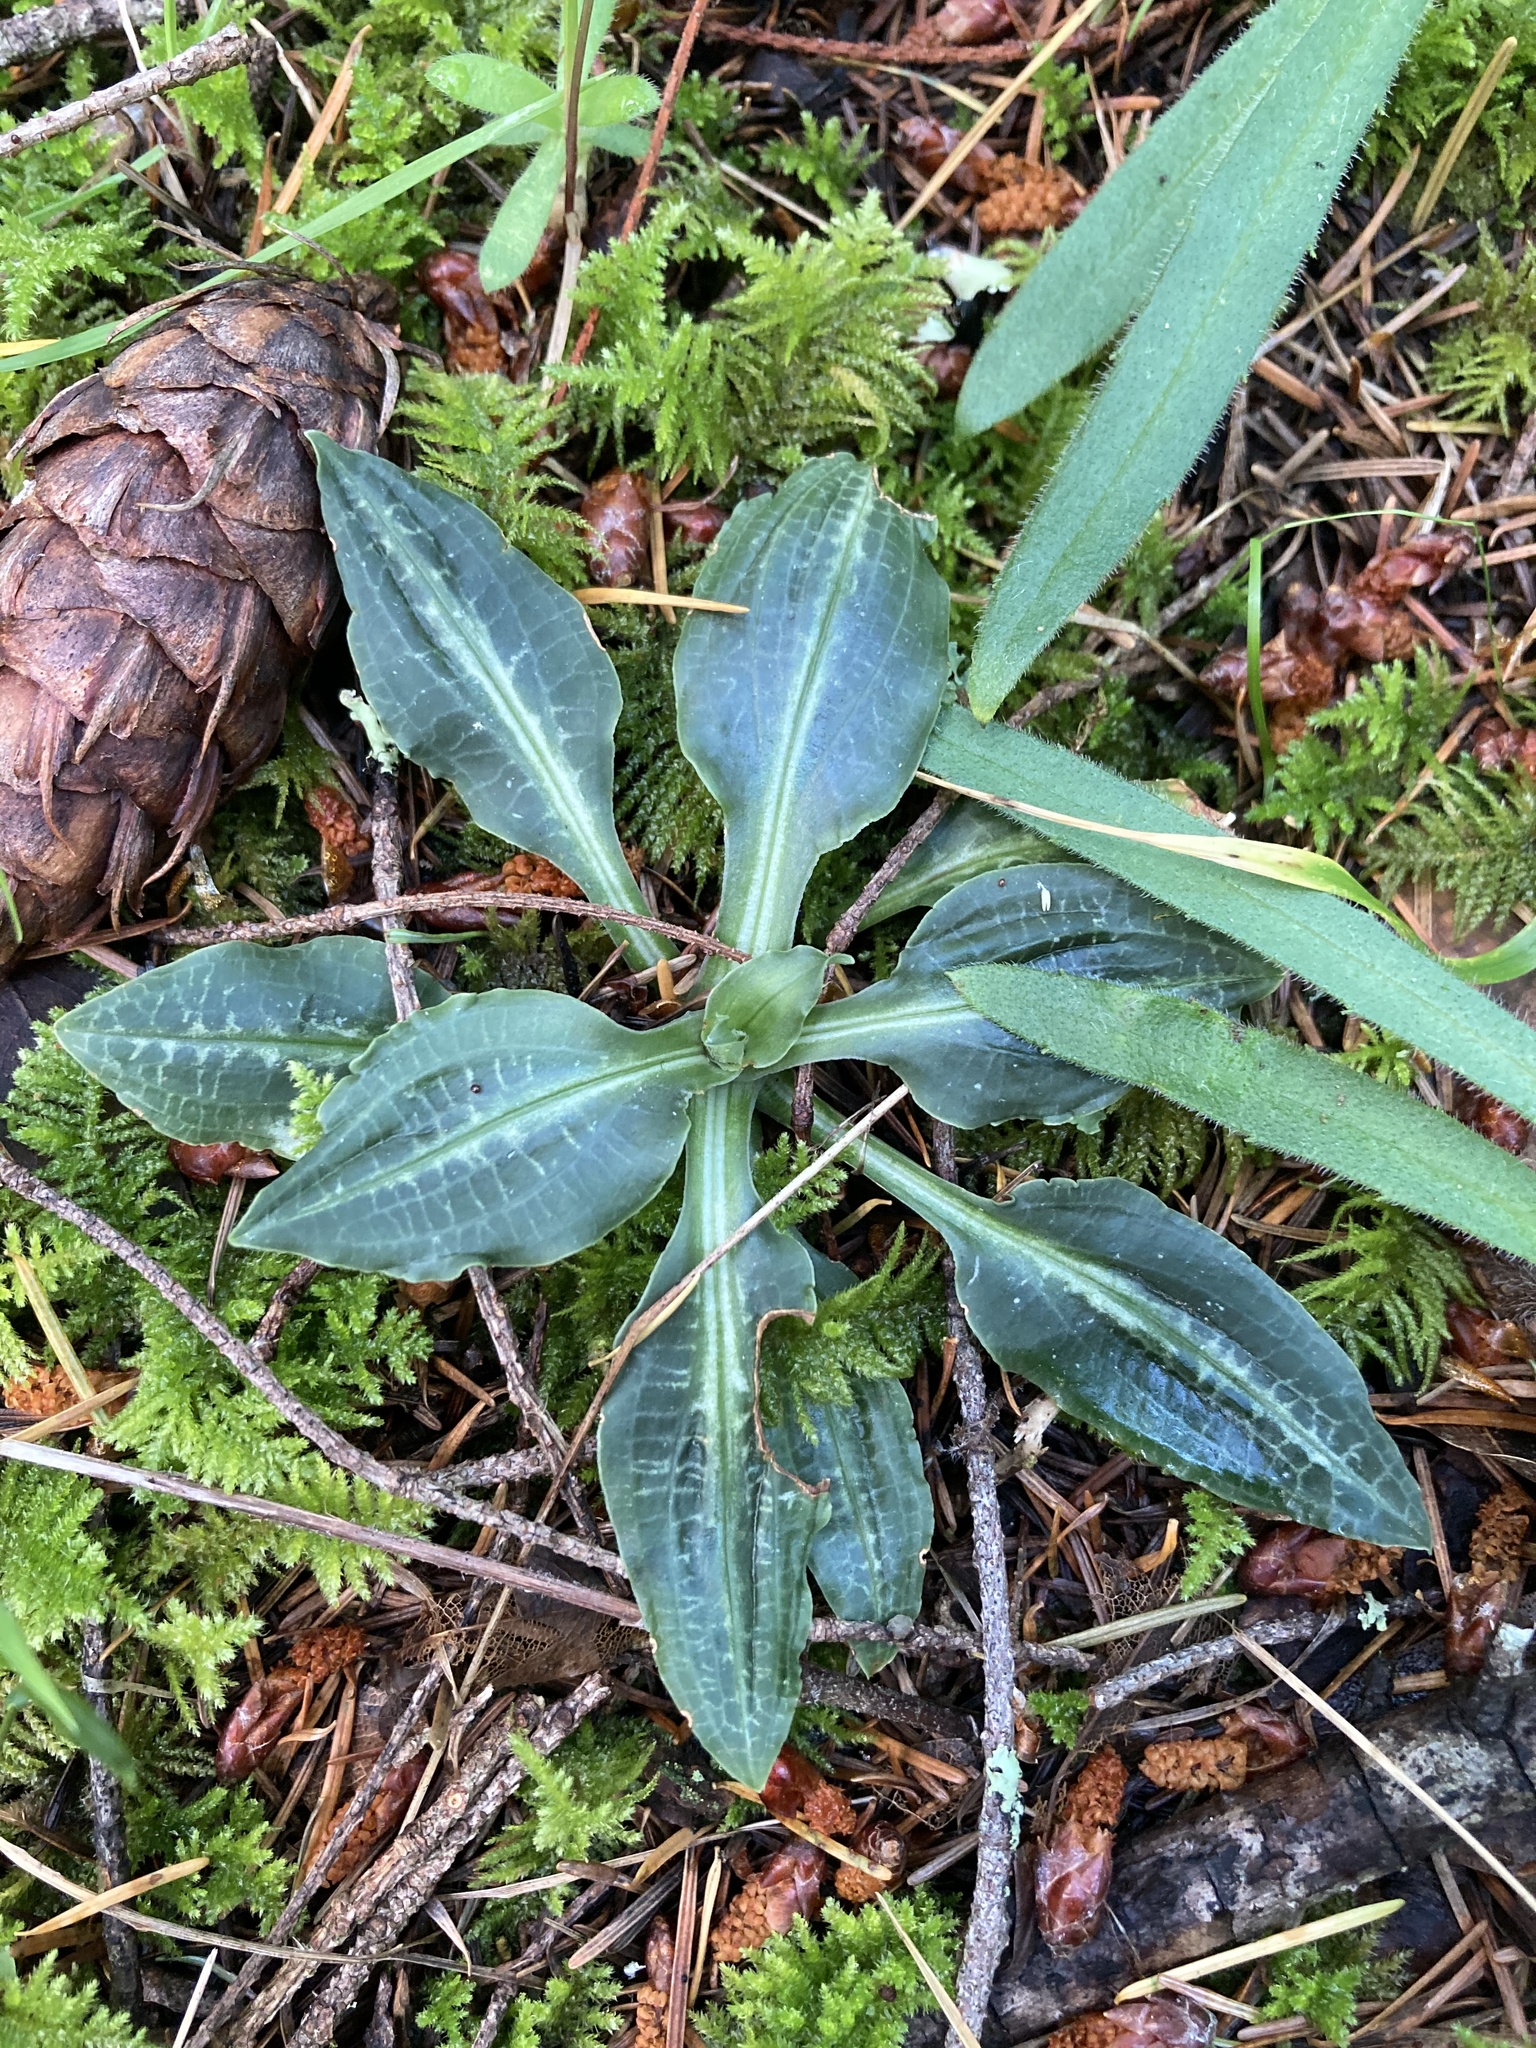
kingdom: Plantae
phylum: Tracheophyta
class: Liliopsida
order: Asparagales
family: Orchidaceae
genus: Goodyera
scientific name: Goodyera oblongifolia
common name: Giant rattlesnake-plantain
